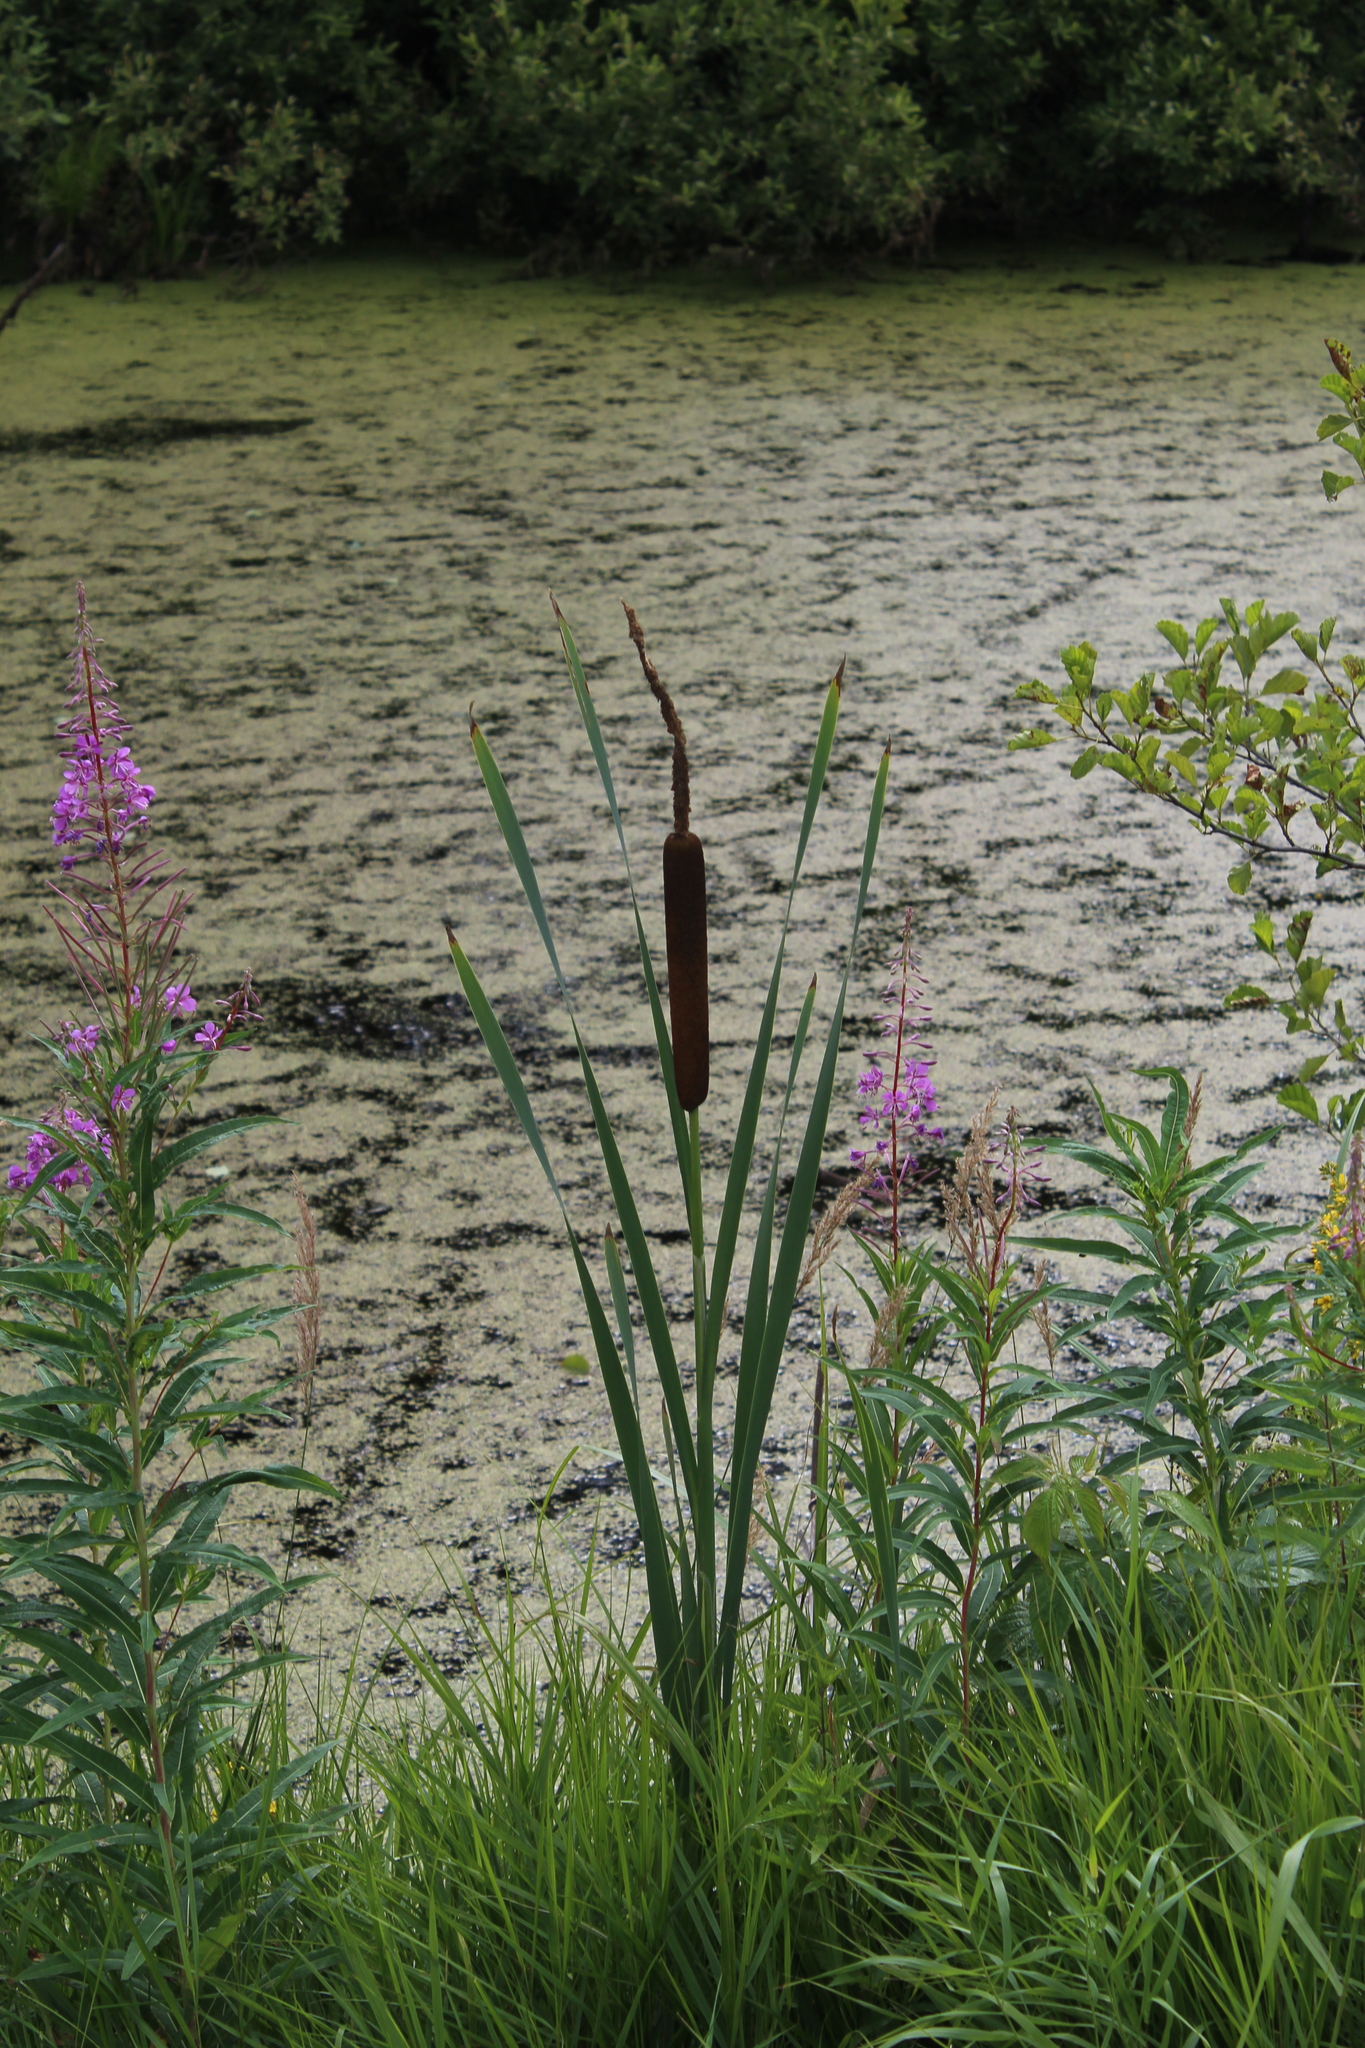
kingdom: Plantae
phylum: Tracheophyta
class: Liliopsida
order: Poales
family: Typhaceae
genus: Typha
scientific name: Typha latifolia
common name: Broadleaf cattail
